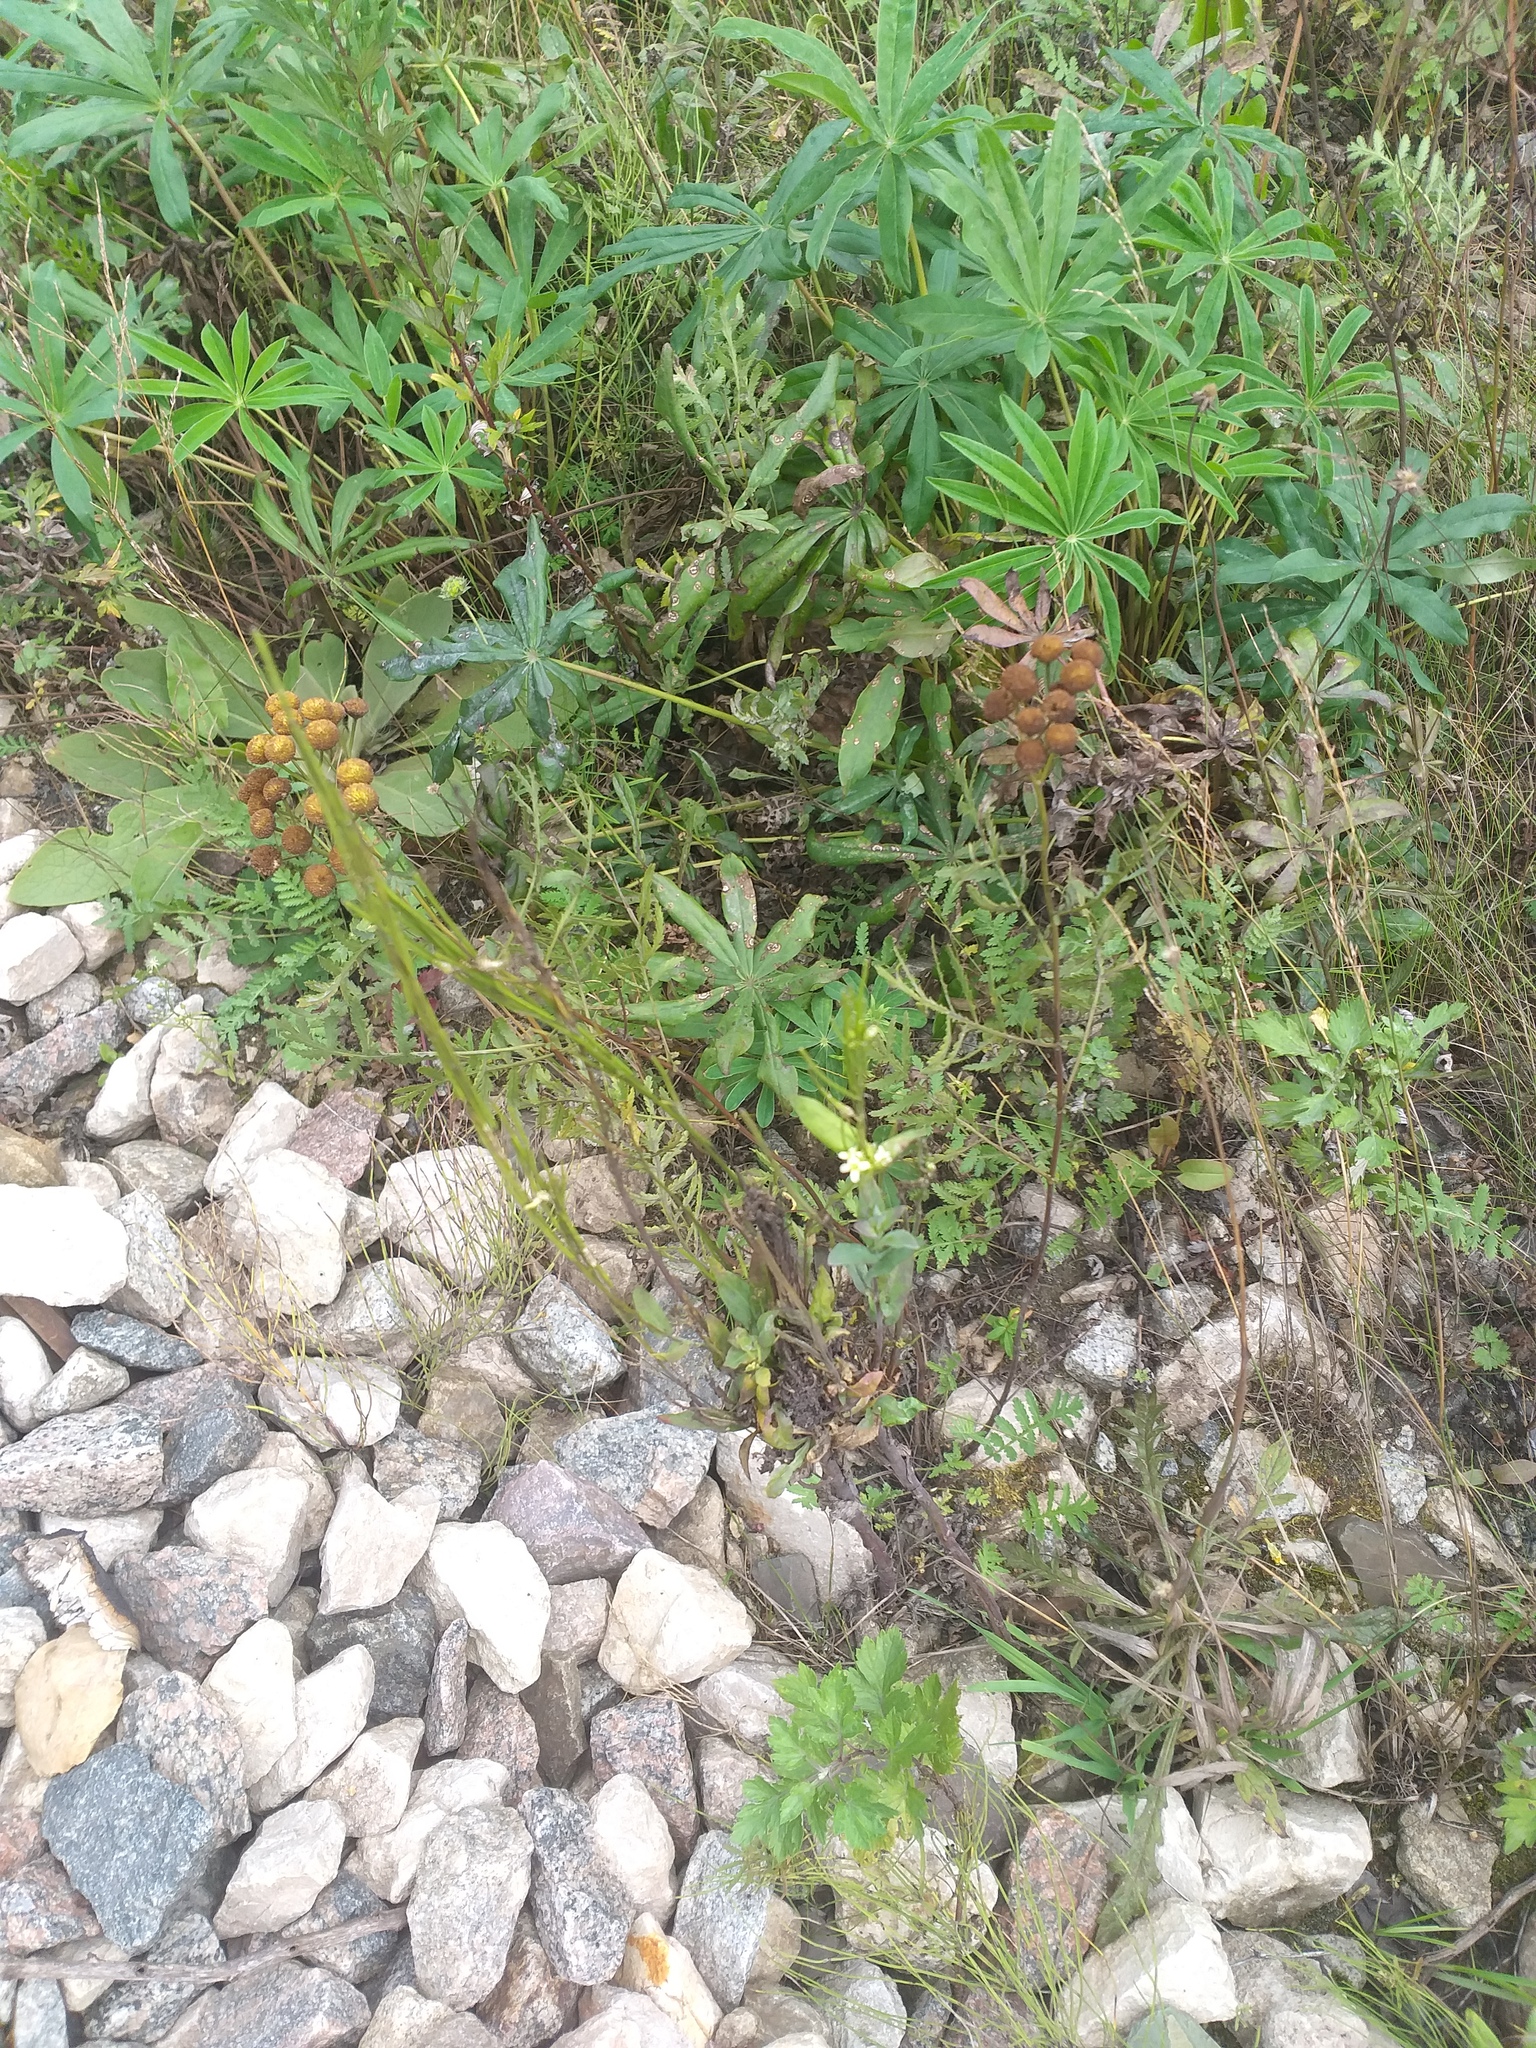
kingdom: Plantae
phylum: Tracheophyta
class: Magnoliopsida
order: Brassicales
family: Brassicaceae
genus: Turritis
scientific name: Turritis glabra
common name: Tower rockcress
